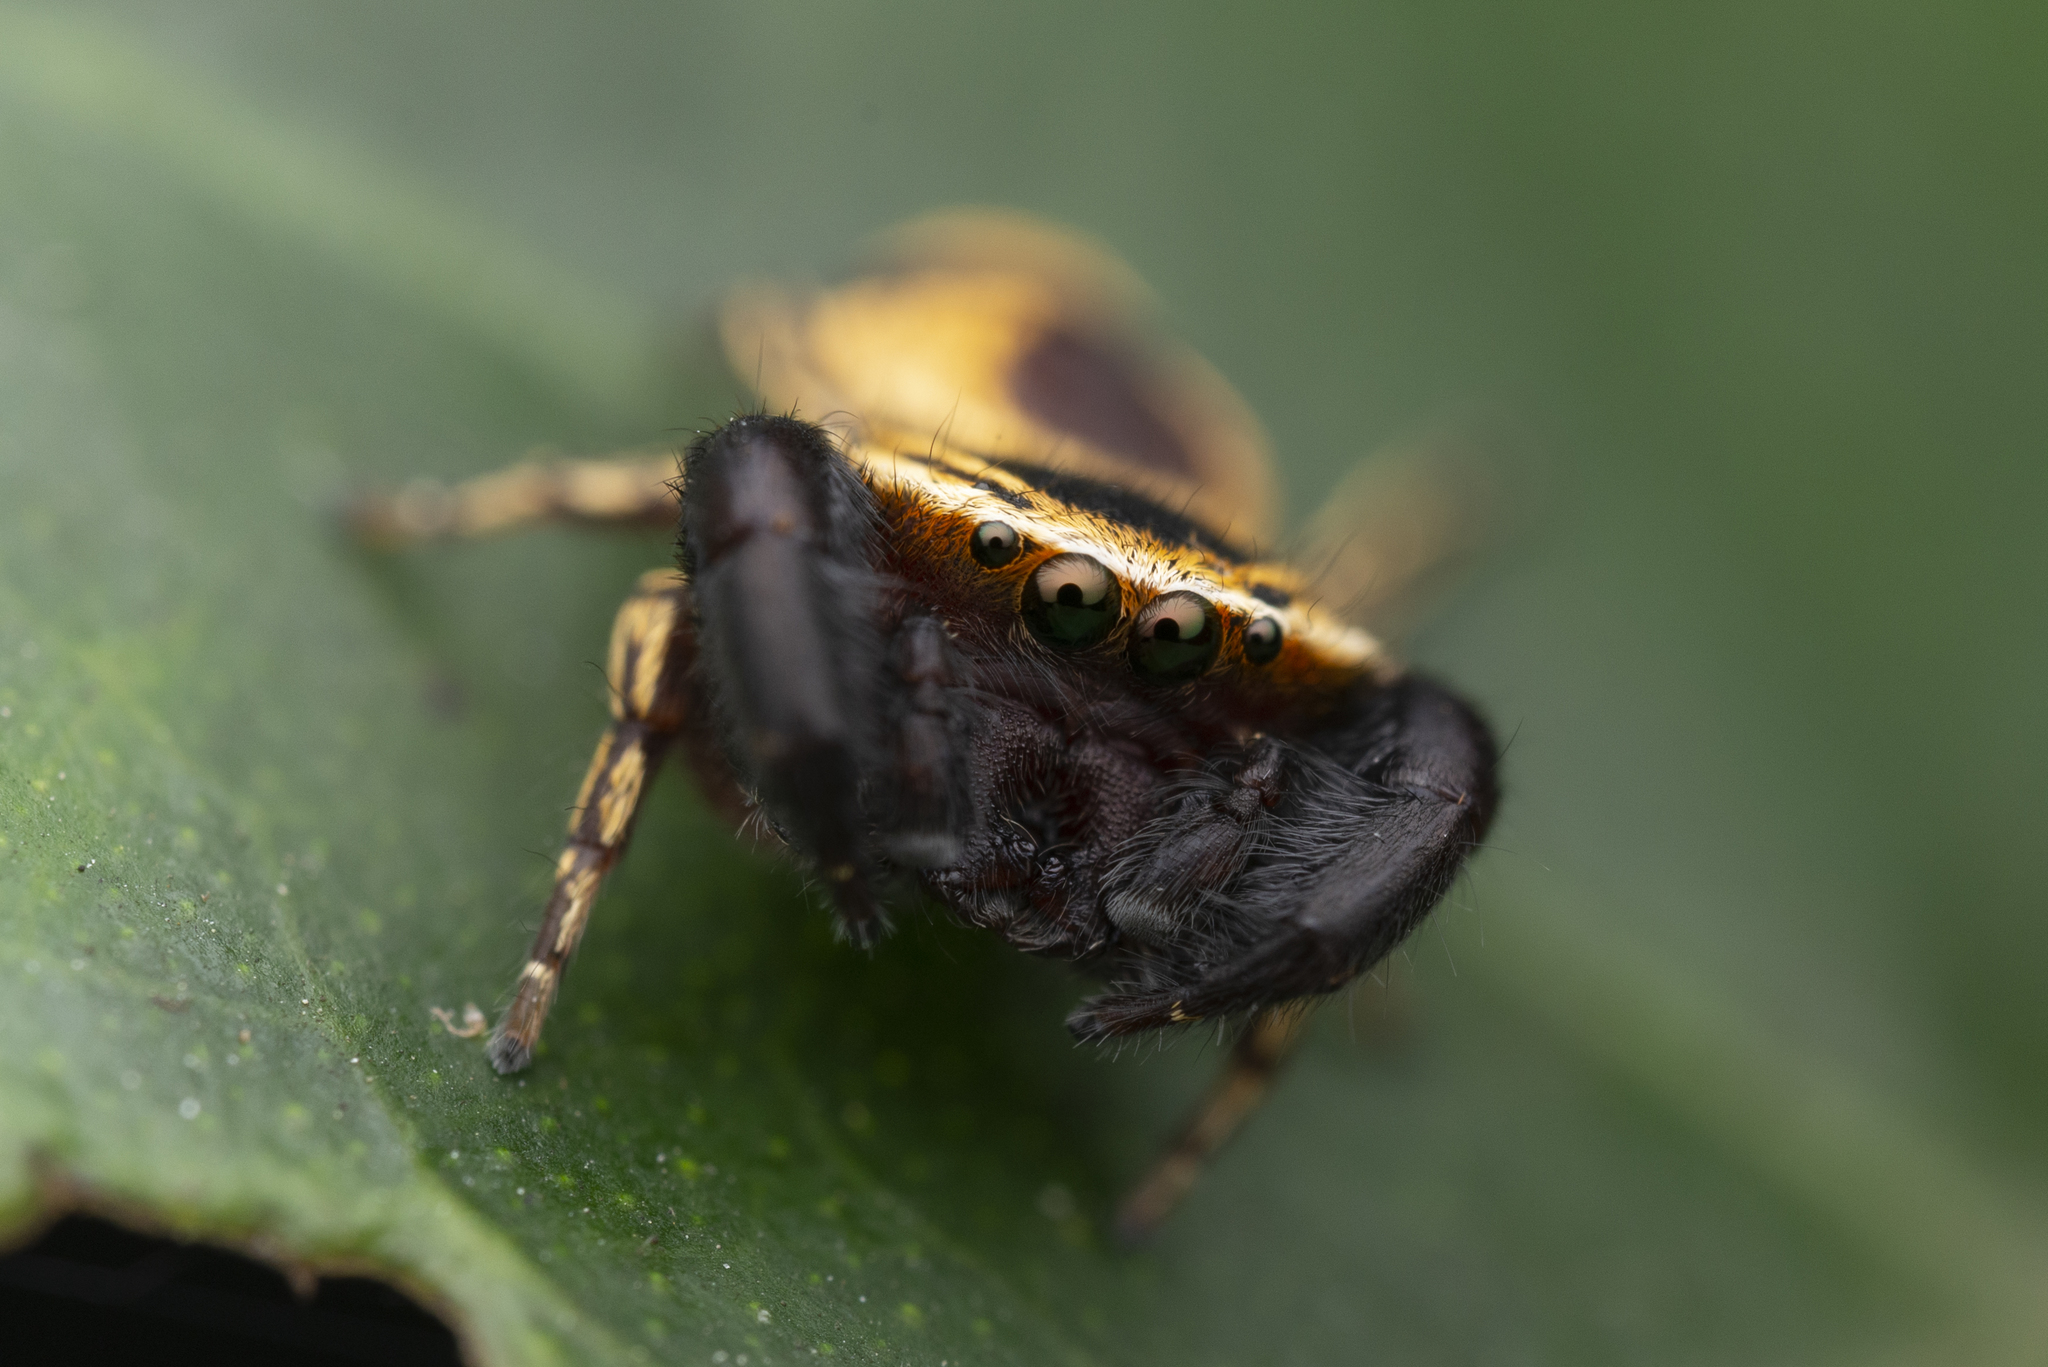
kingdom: Animalia
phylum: Arthropoda
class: Arachnida
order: Araneae
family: Salticidae
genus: Rhene
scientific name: Rhene flavicomans
